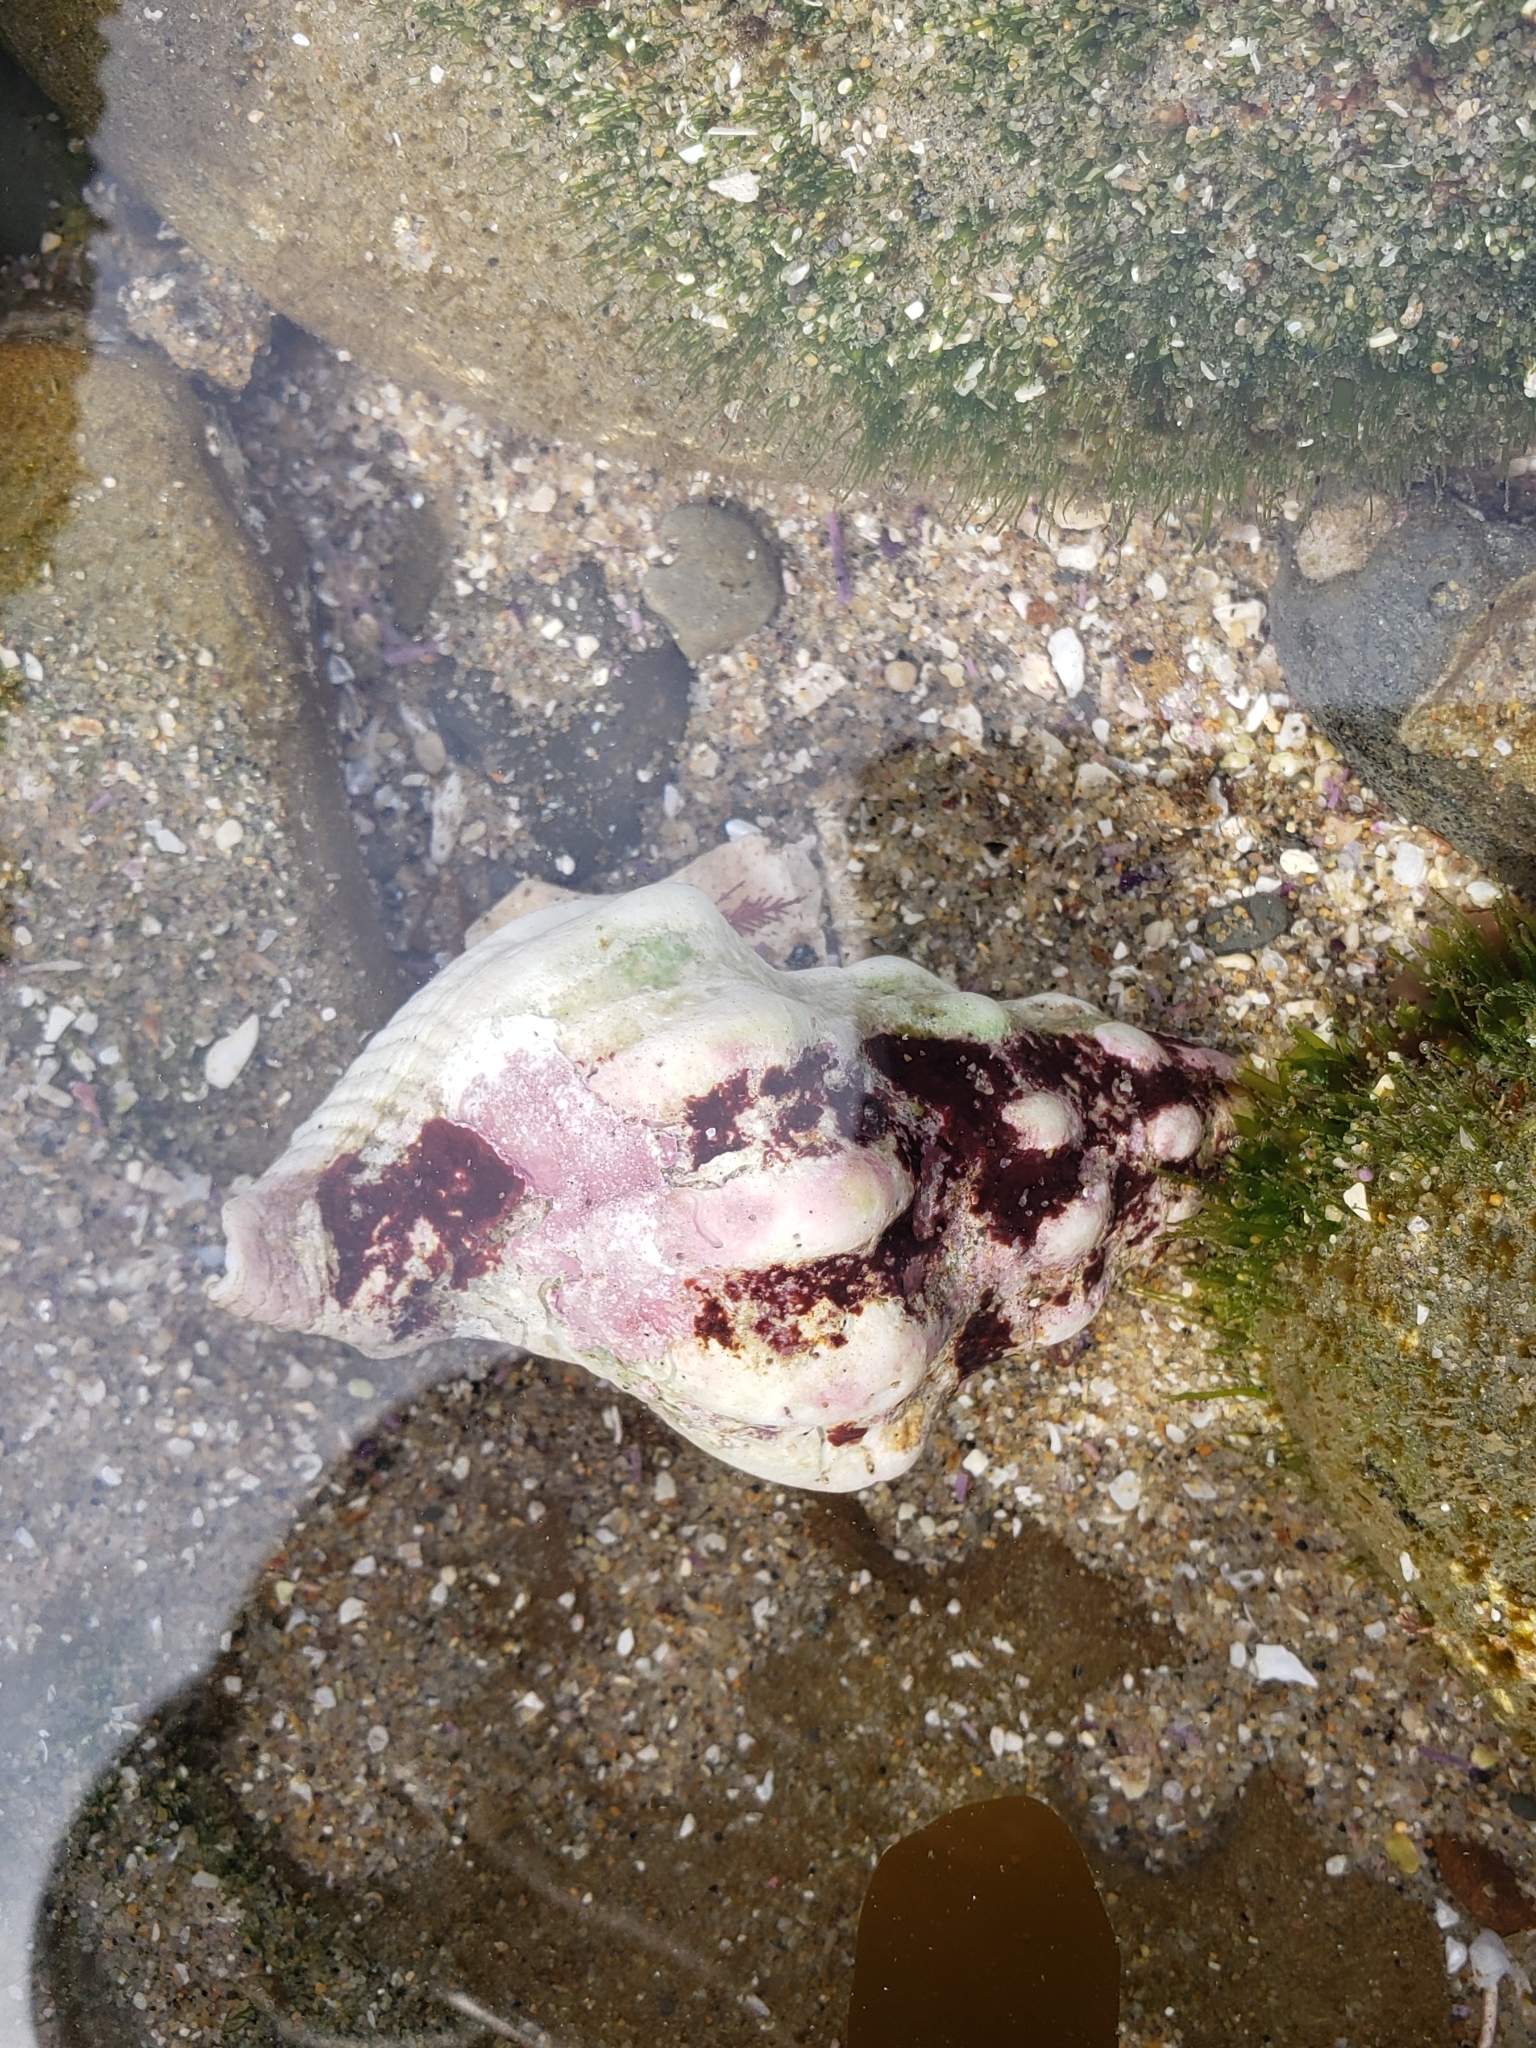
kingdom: Animalia
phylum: Mollusca
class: Gastropoda
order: Neogastropoda
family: Austrosiphonidae
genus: Kelletia
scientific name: Kelletia kelletii
